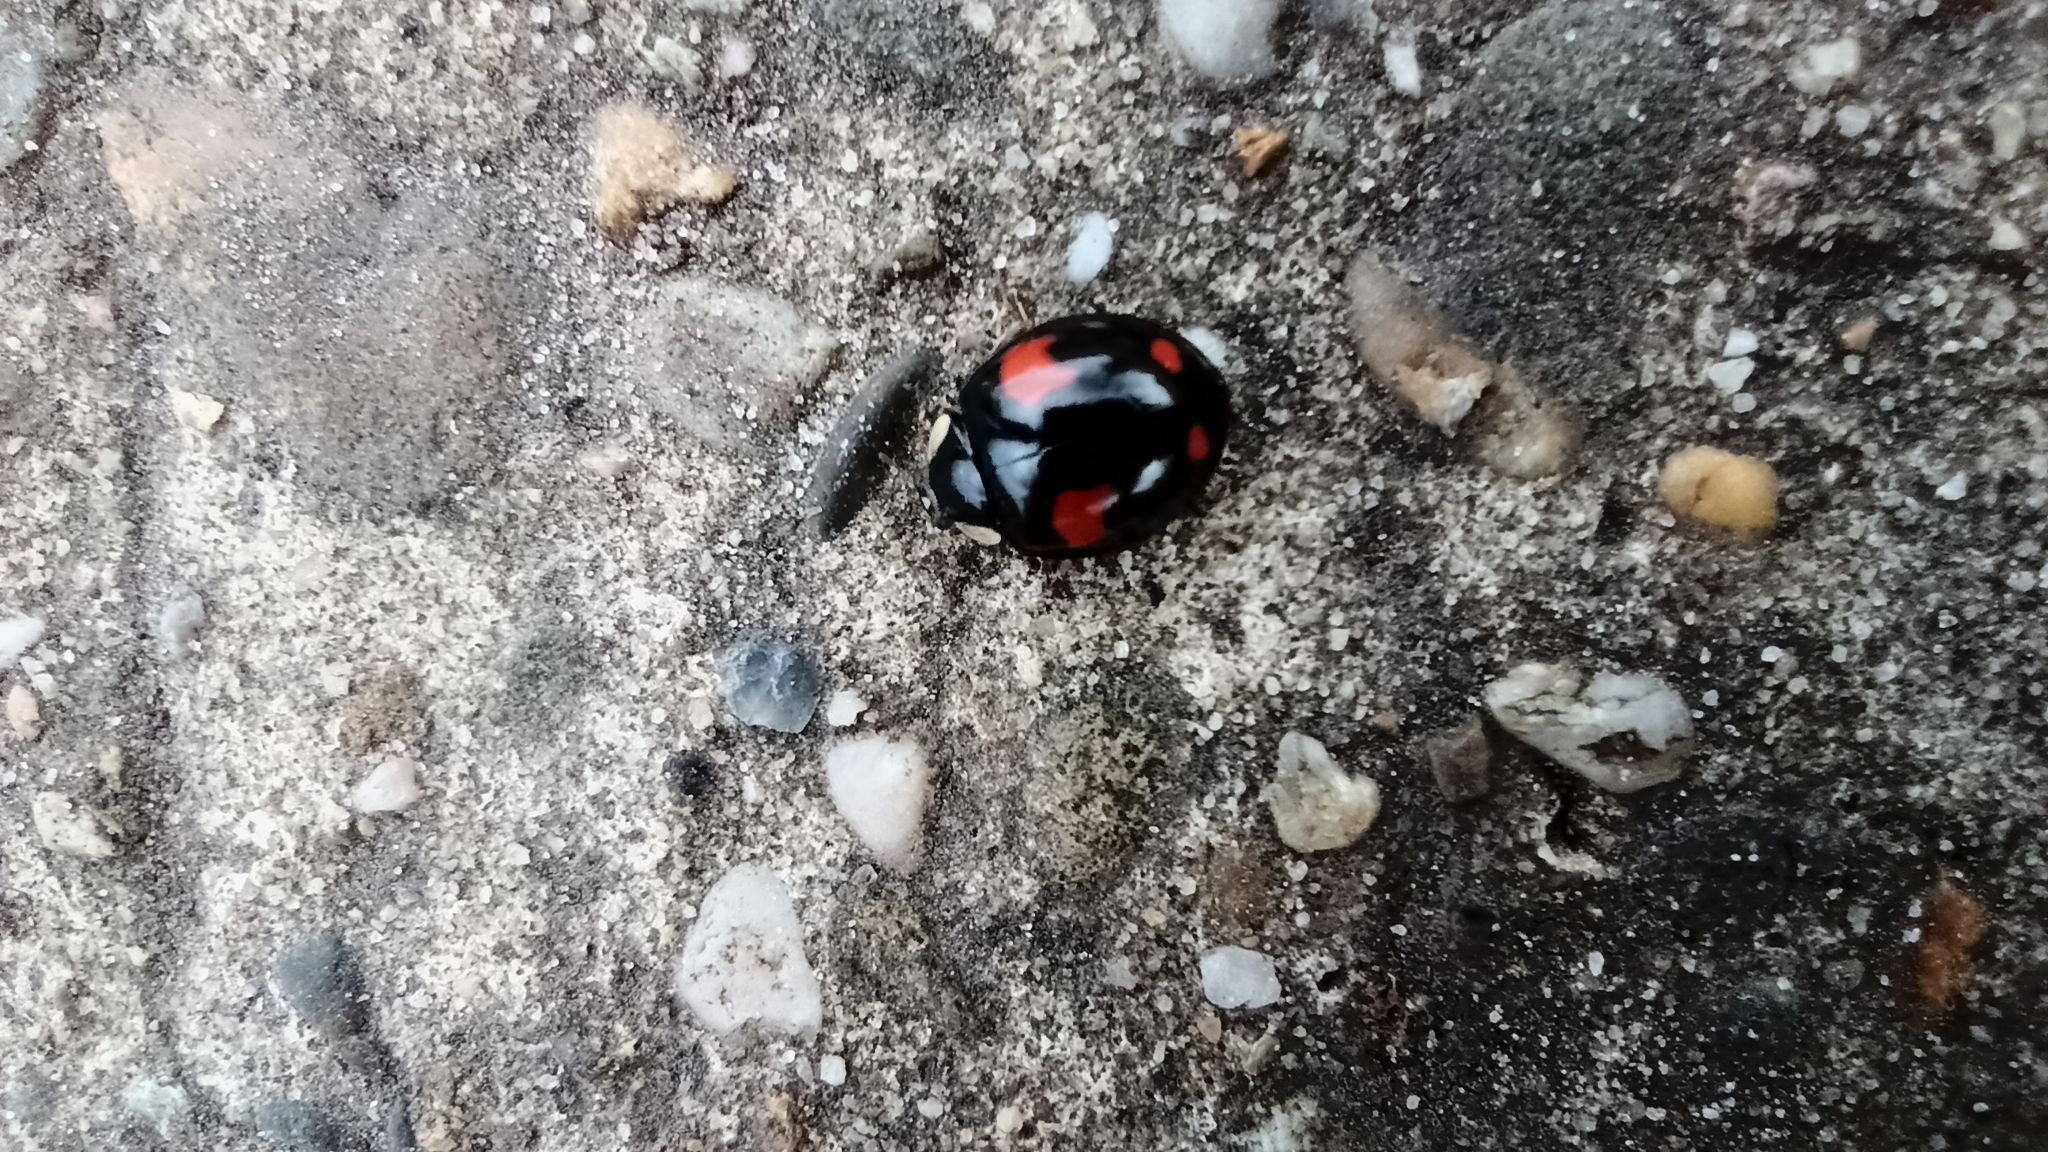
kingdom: Animalia
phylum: Arthropoda
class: Insecta
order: Coleoptera
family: Coccinellidae
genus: Harmonia
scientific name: Harmonia axyridis
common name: Harlequin ladybird
